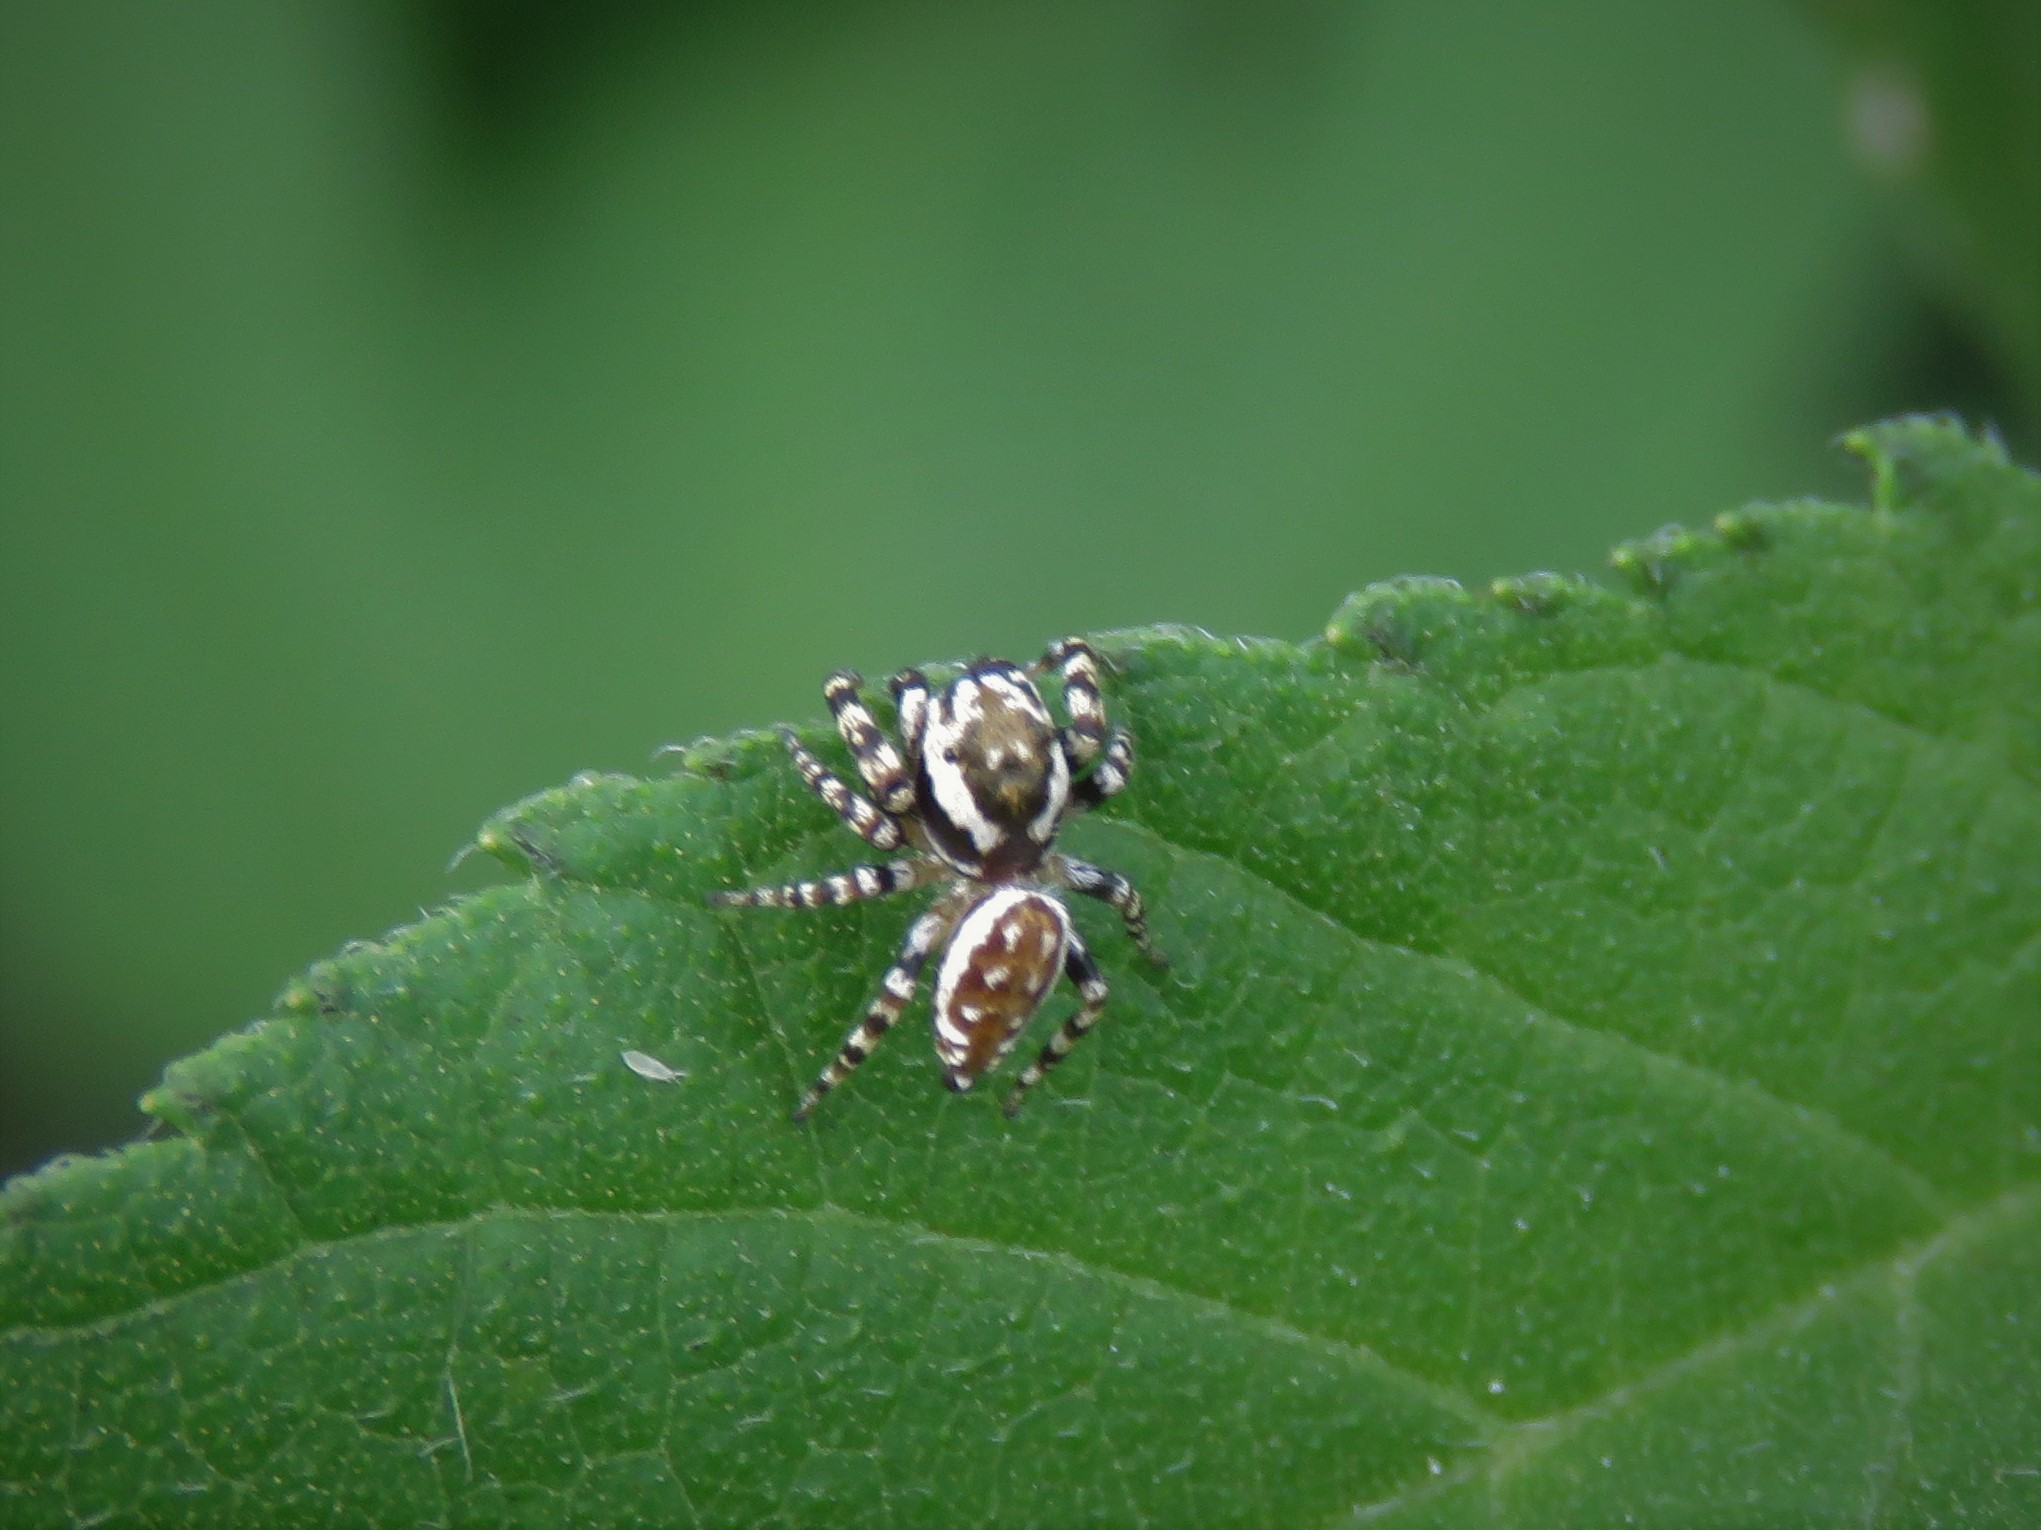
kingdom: Animalia
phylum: Arthropoda
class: Arachnida
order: Araneae
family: Salticidae
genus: Pelegrina
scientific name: Pelegrina galathea
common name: Jumping spiders
